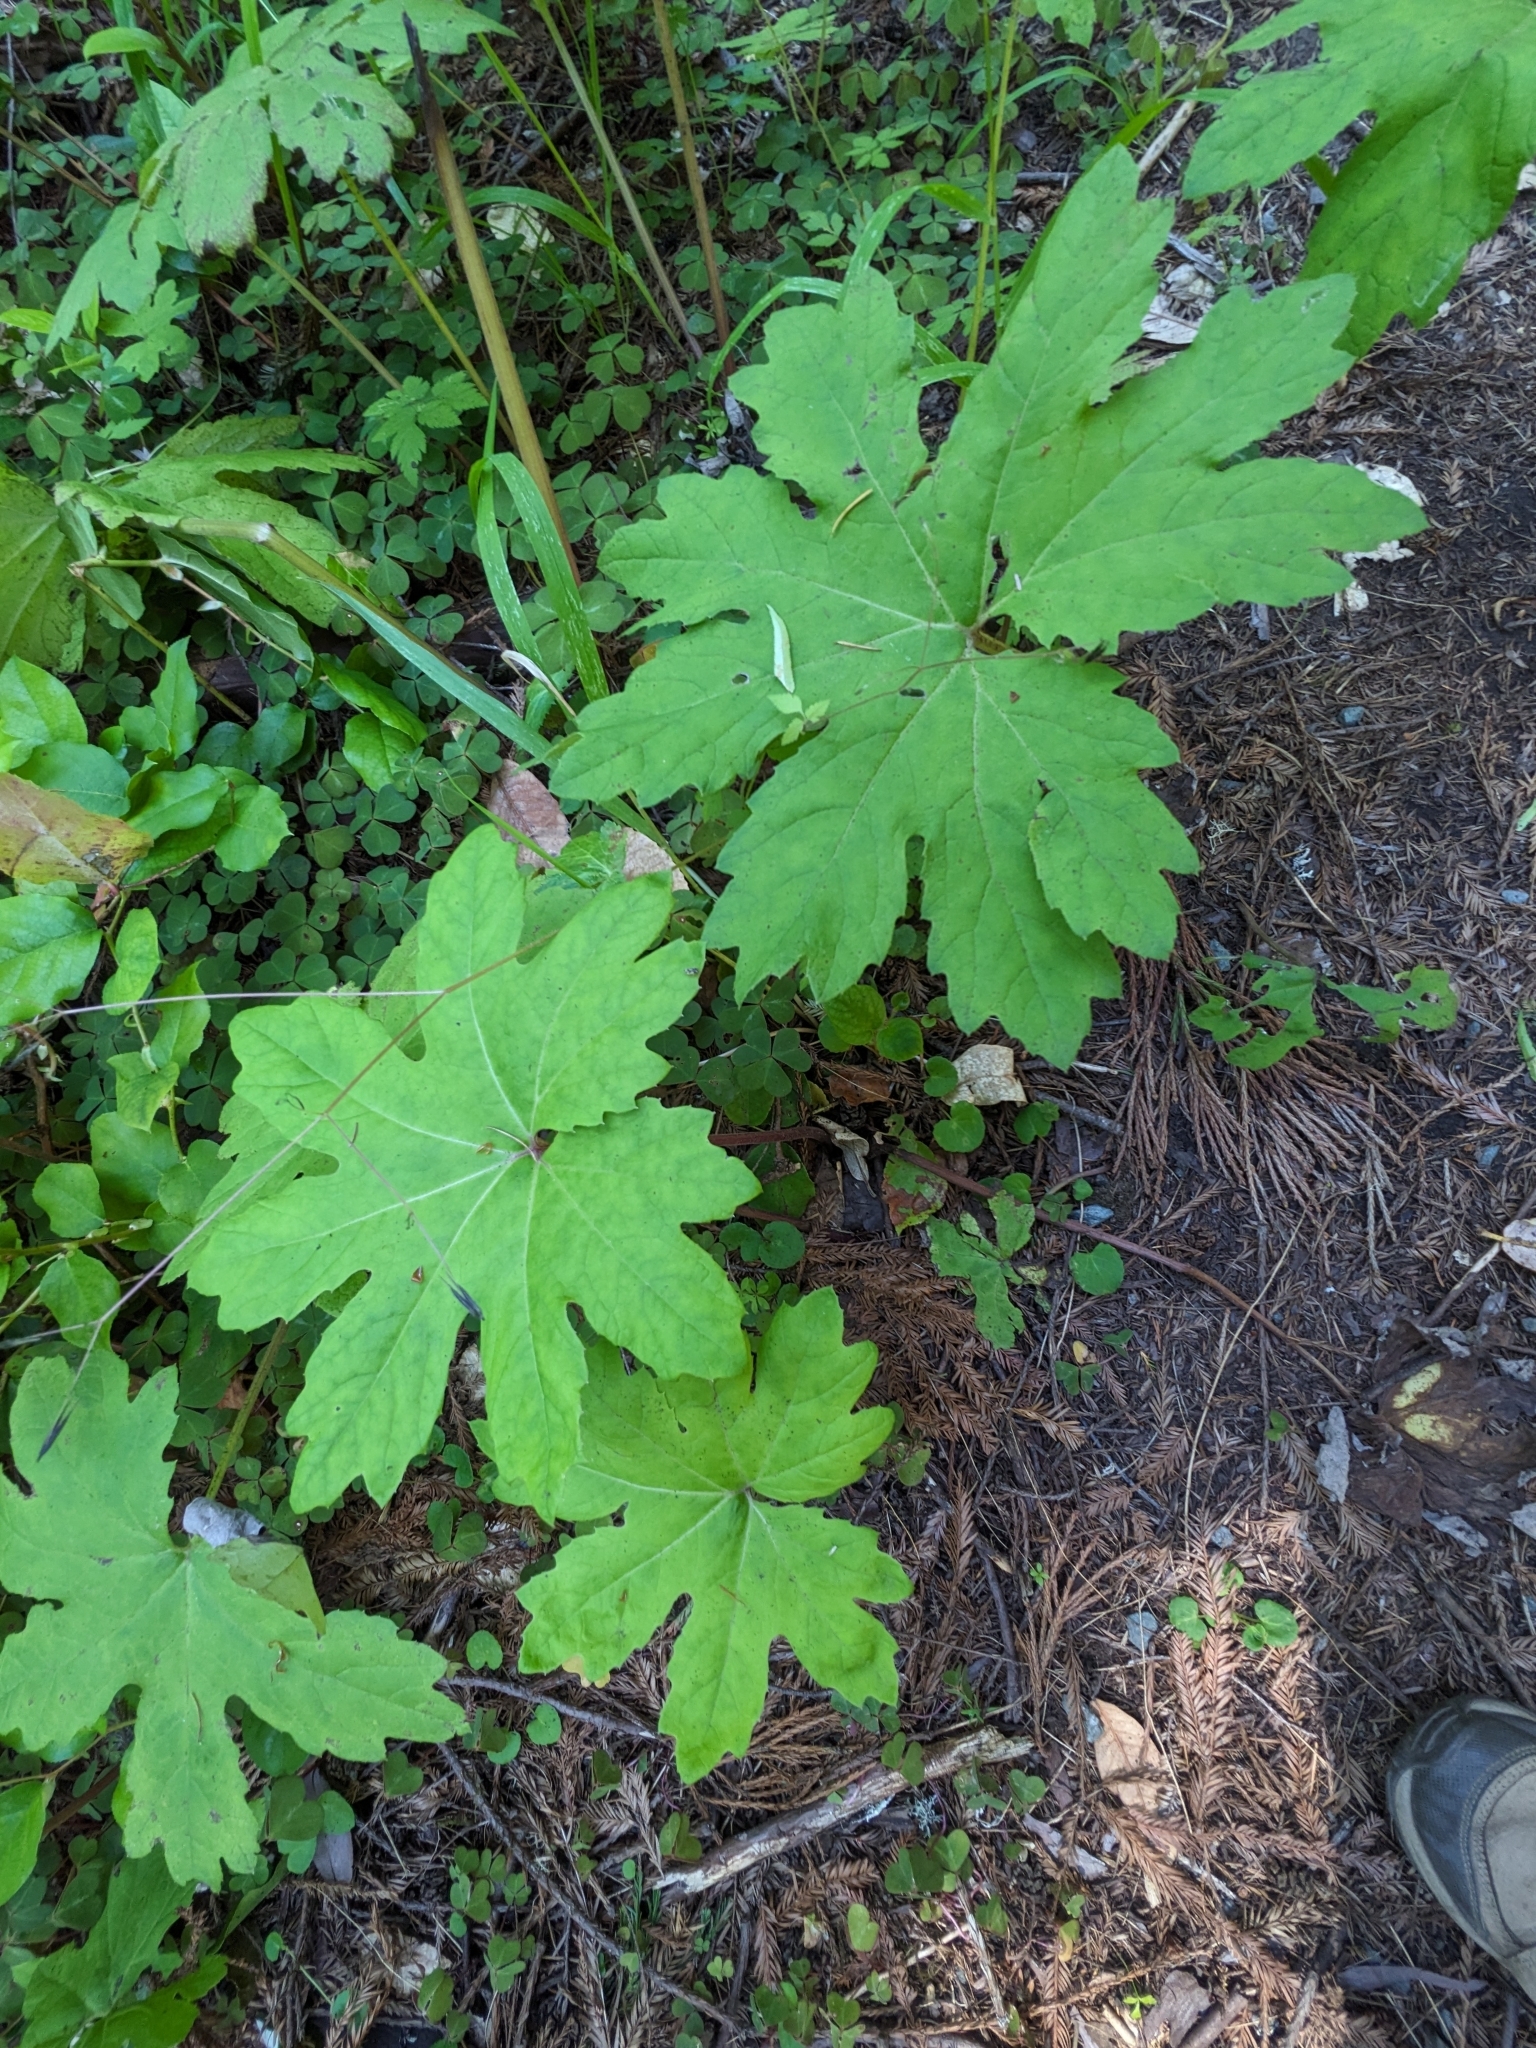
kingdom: Plantae
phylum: Tracheophyta
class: Magnoliopsida
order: Asterales
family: Asteraceae
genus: Petasites
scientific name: Petasites frigidus
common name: Arctic butterbur
